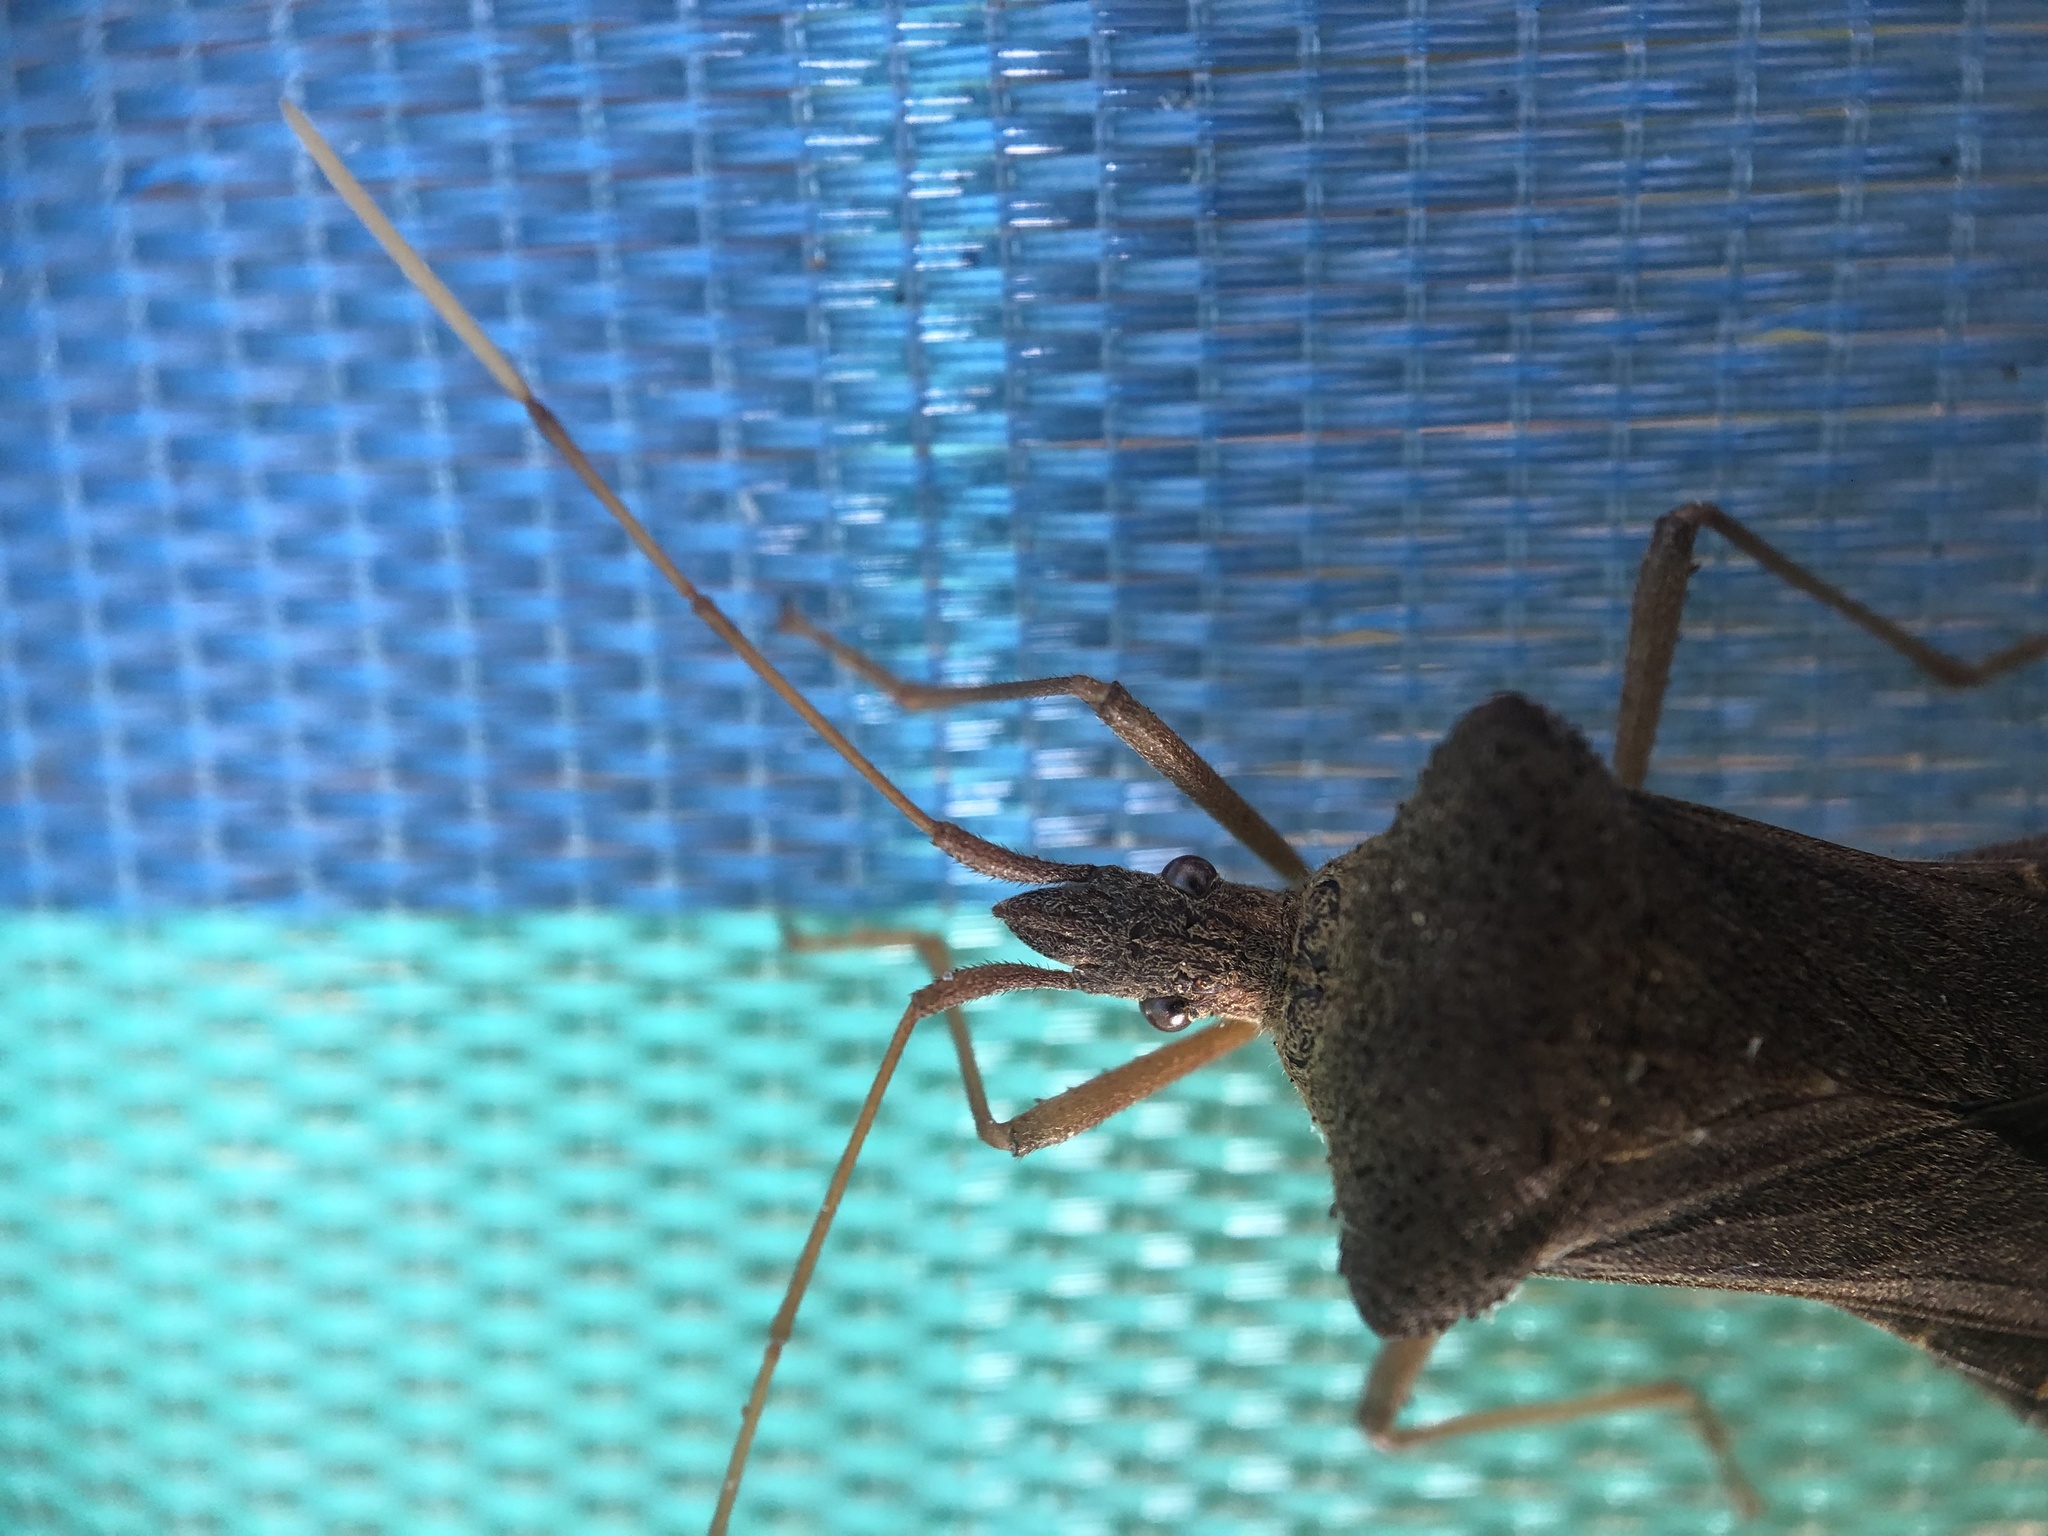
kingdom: Animalia
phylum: Arthropoda
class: Insecta
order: Hemiptera
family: Coreidae
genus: Leptoglossus
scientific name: Leptoglossus fulvicornis
